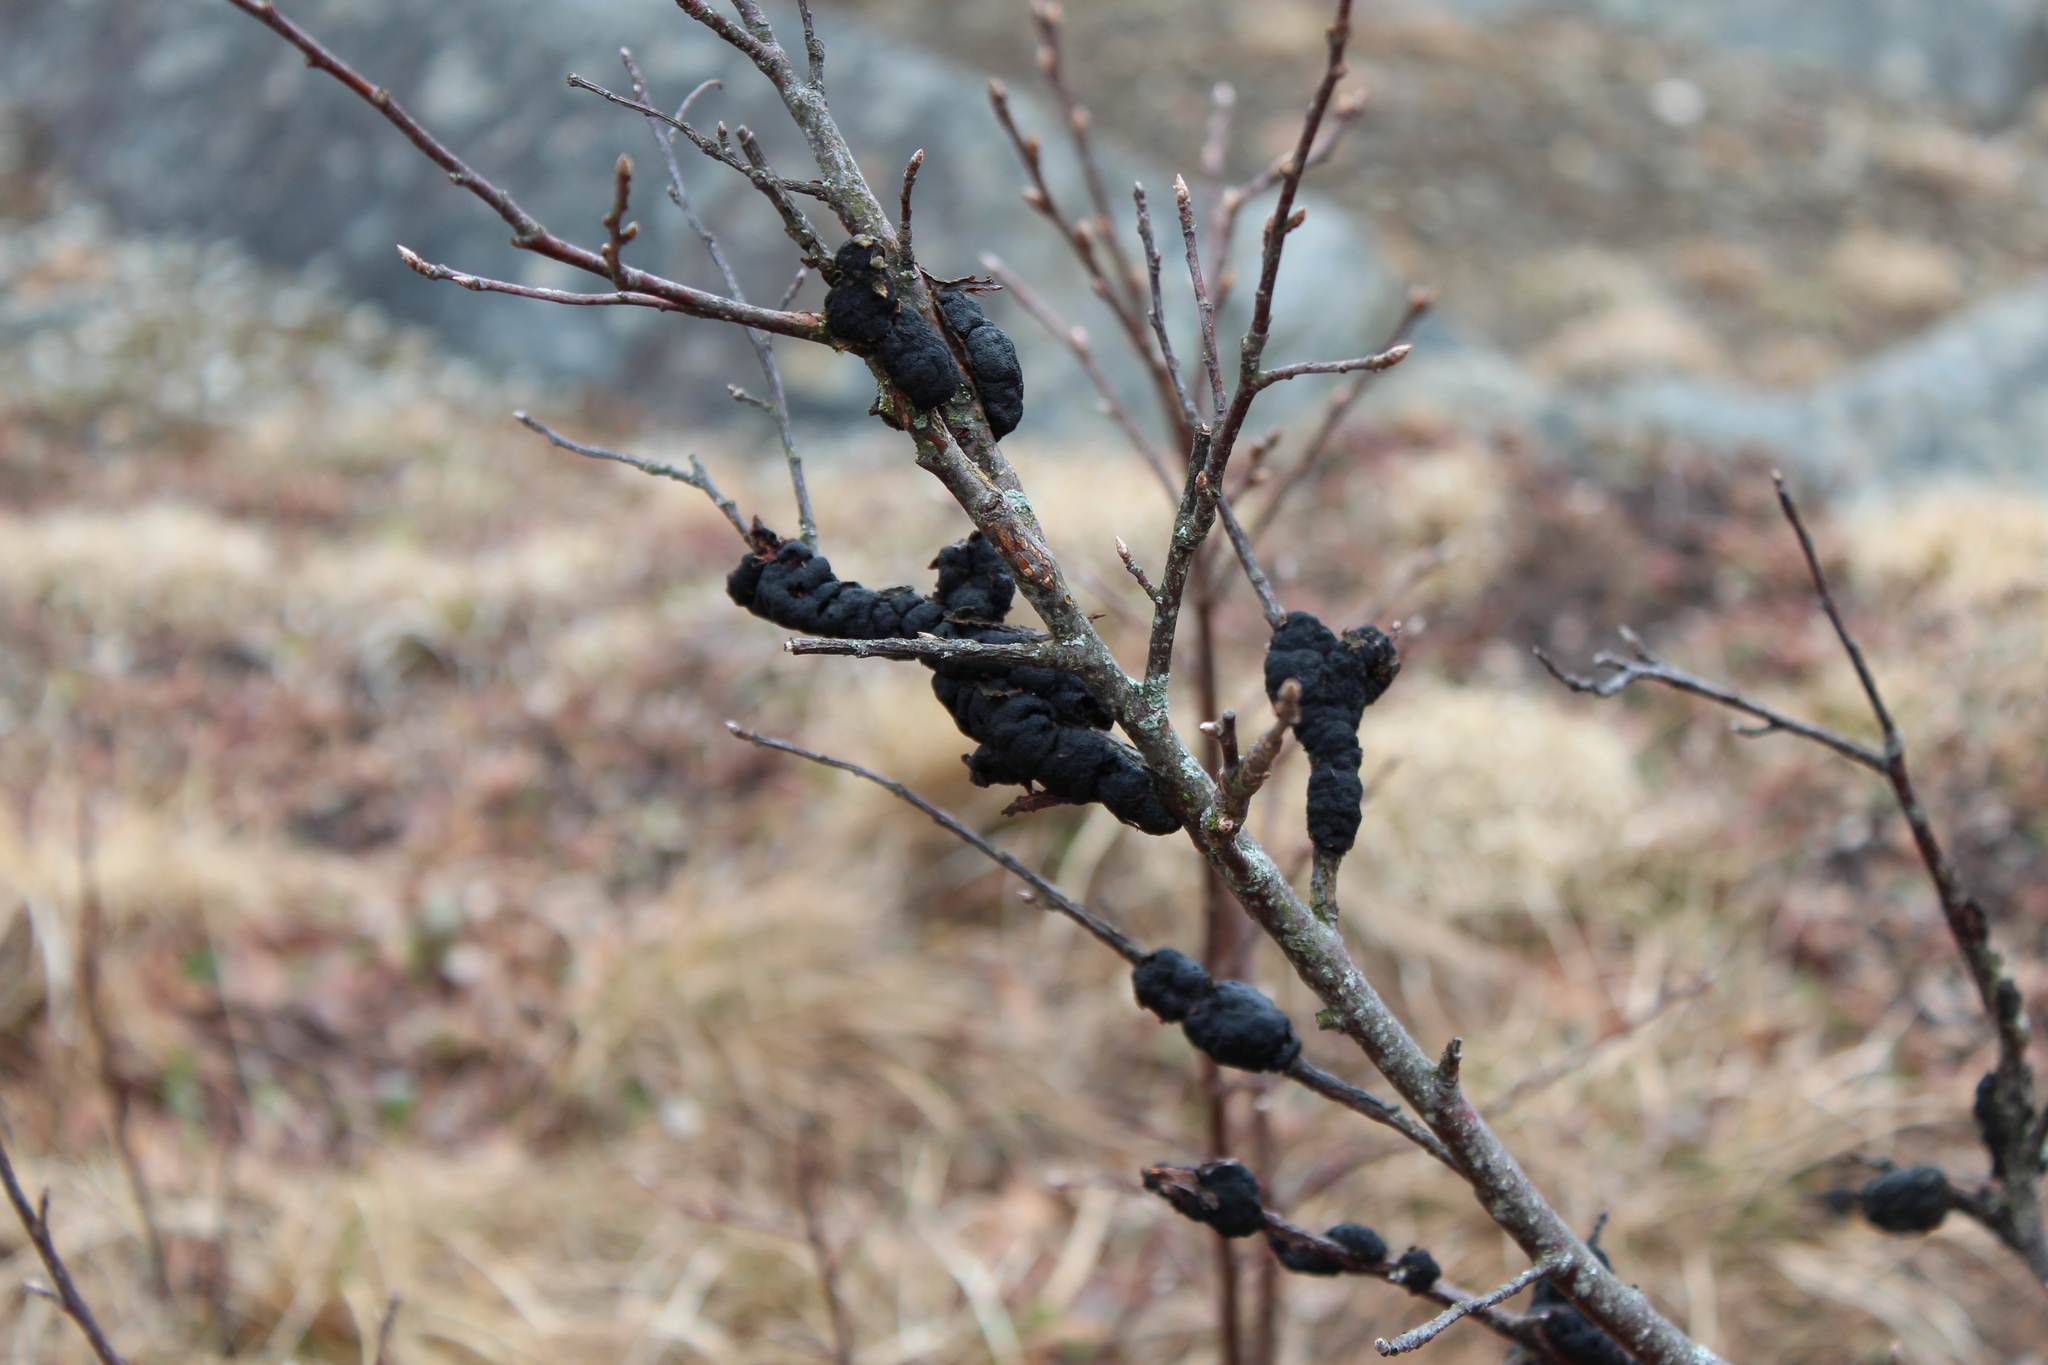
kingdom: Fungi
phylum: Ascomycota
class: Dothideomycetes
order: Venturiales
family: Venturiaceae
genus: Apiosporina
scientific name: Apiosporina morbosa
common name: Black knot
